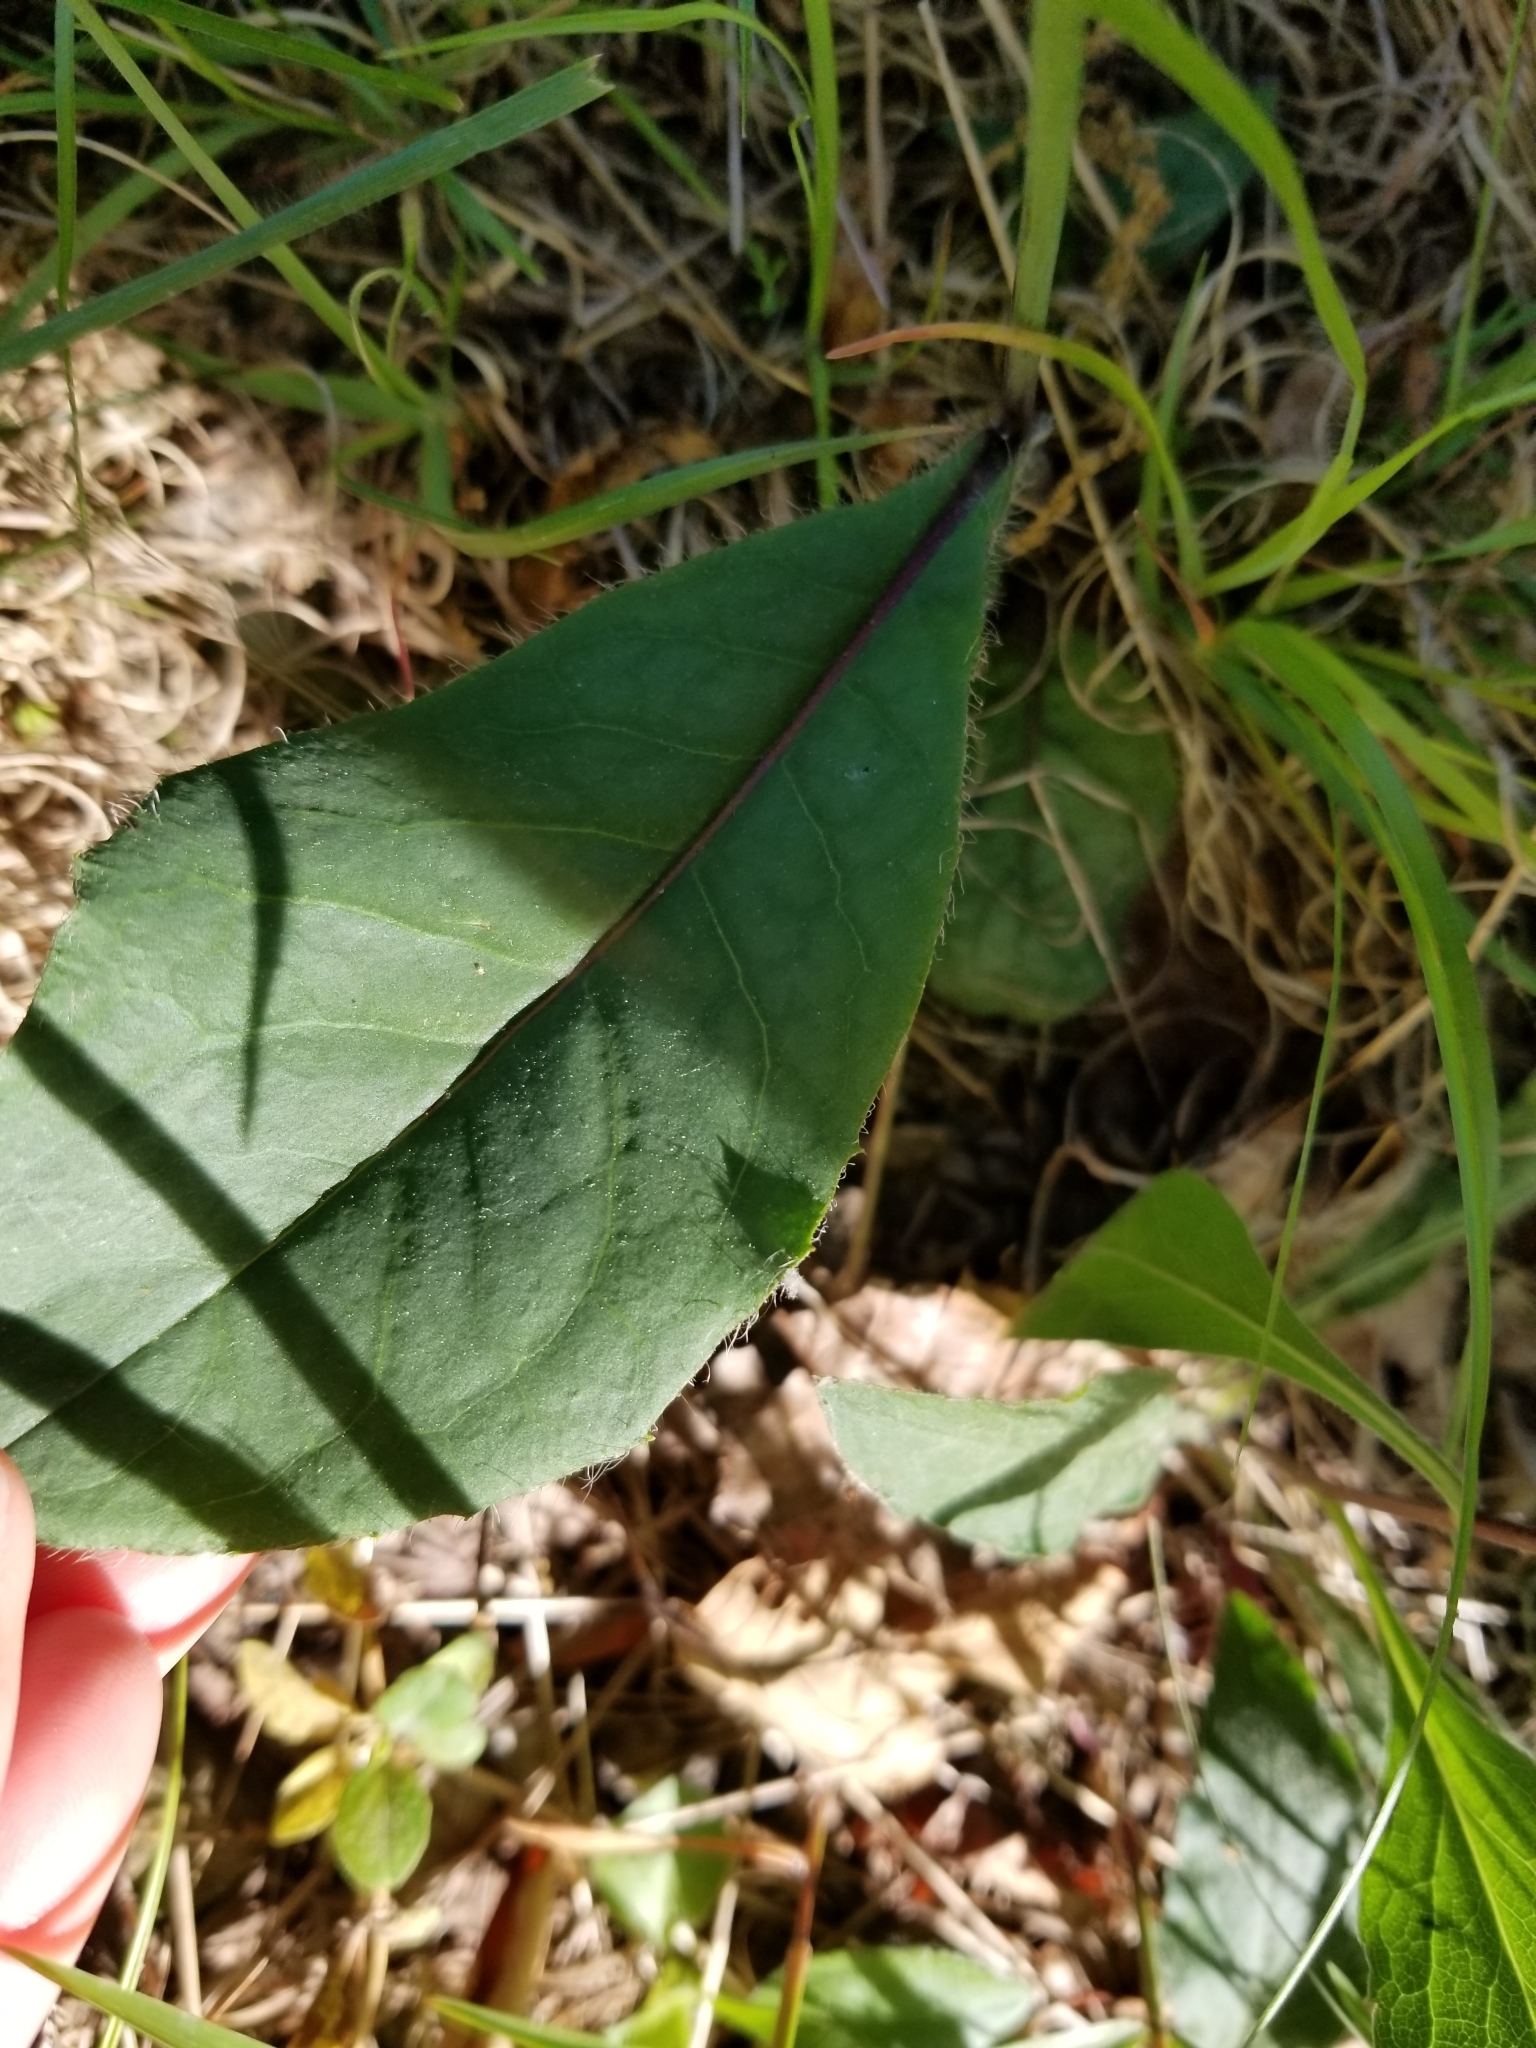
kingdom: Plantae
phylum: Tracheophyta
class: Magnoliopsida
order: Asterales
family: Asteraceae
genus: Hieracium
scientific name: Hieracium venosum
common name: Rattlesnake hawkweed
